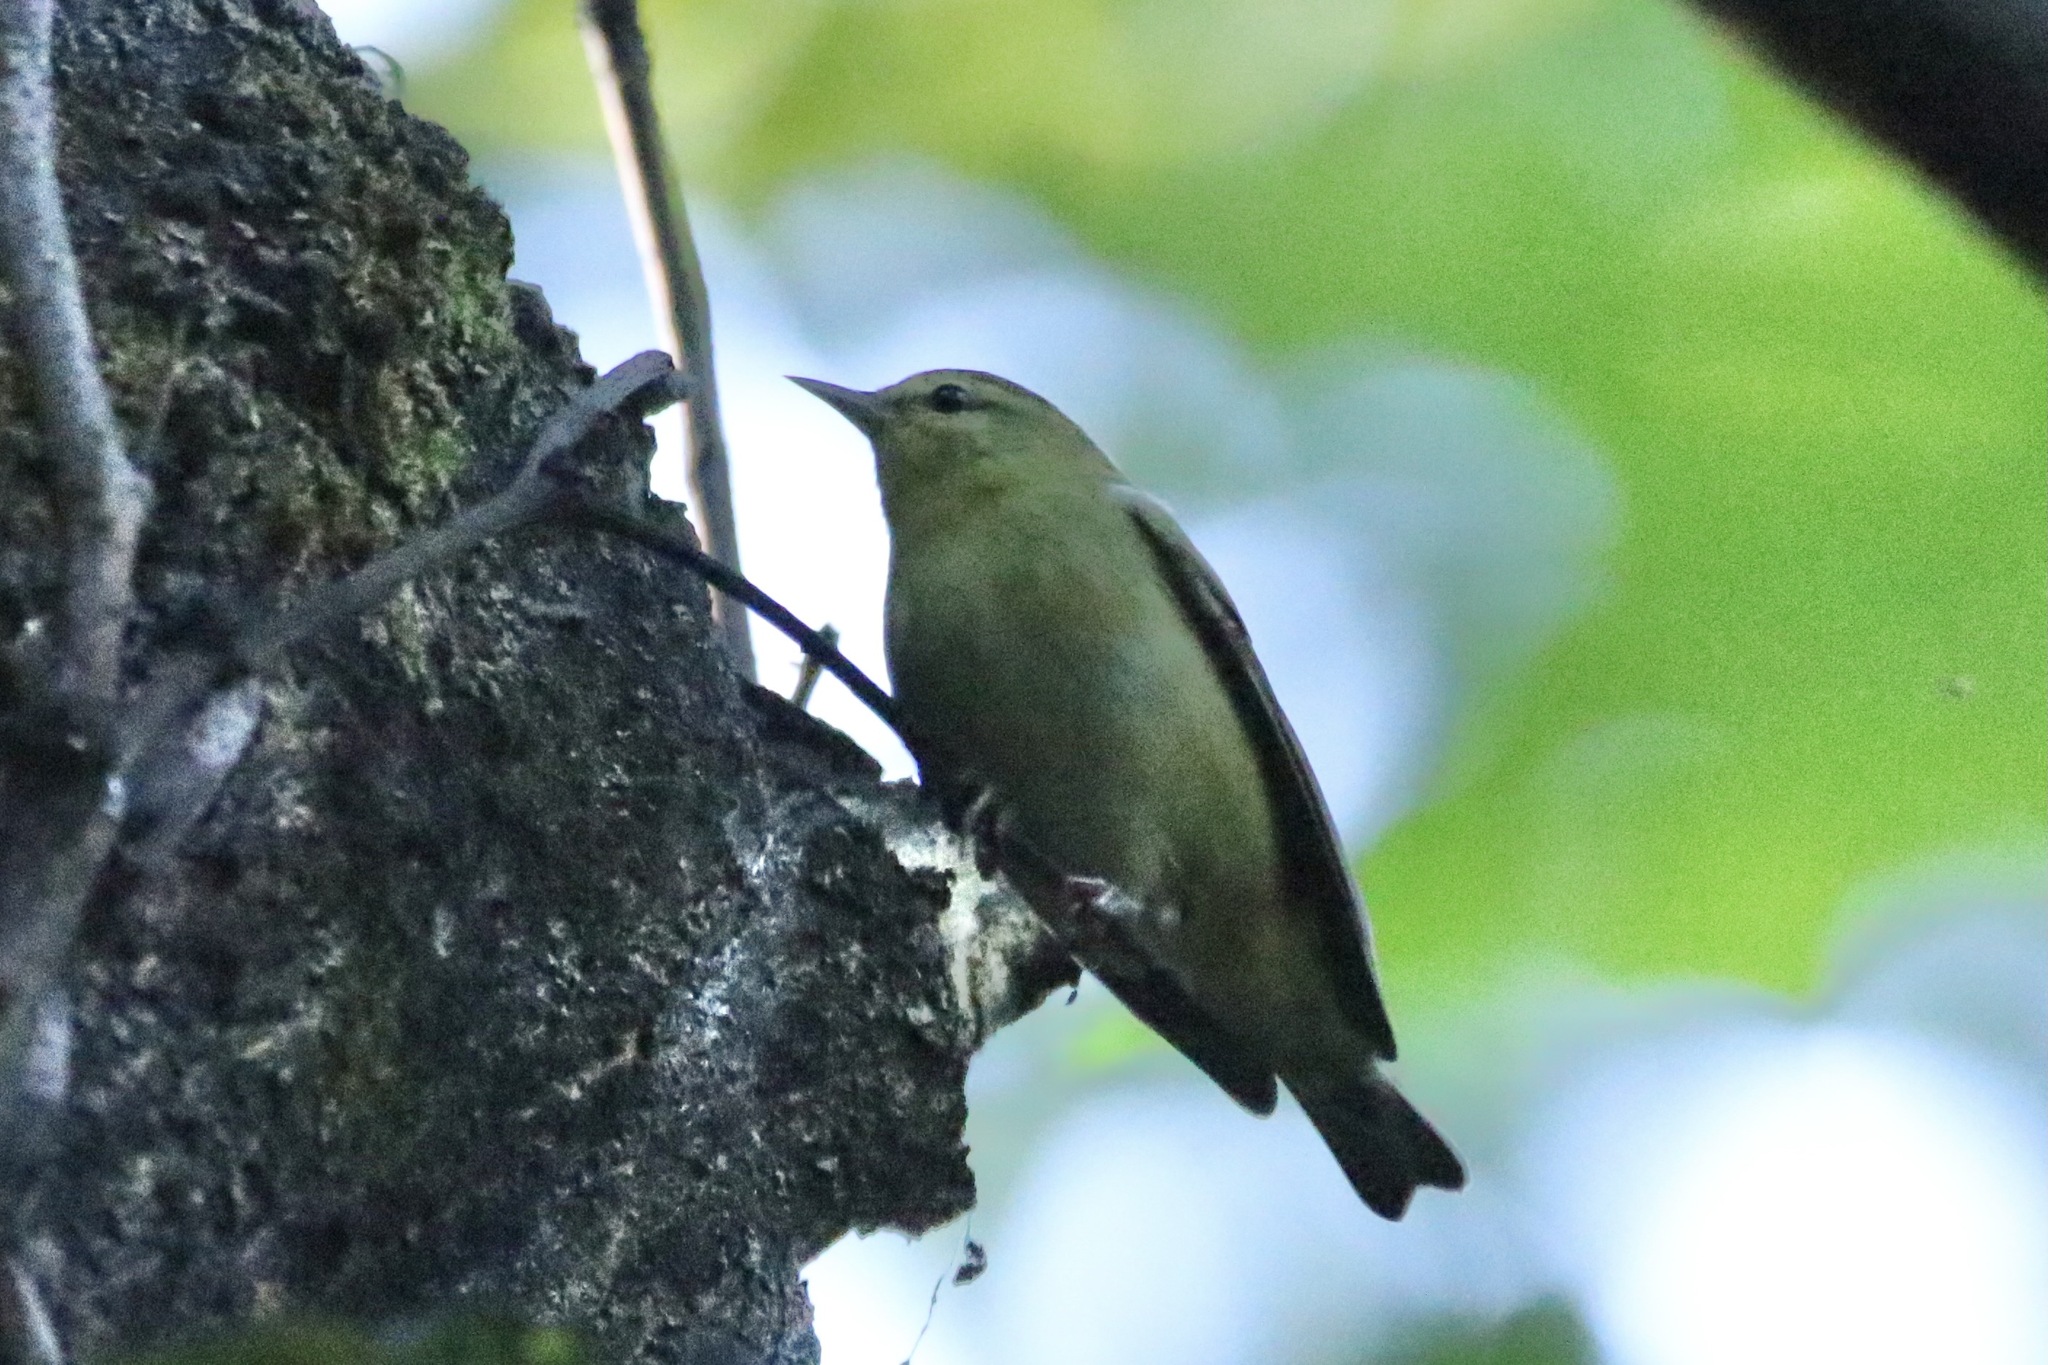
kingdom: Animalia
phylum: Chordata
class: Aves
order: Passeriformes
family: Parulidae
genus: Leiothlypis
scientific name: Leiothlypis peregrina
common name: Tennessee warbler
